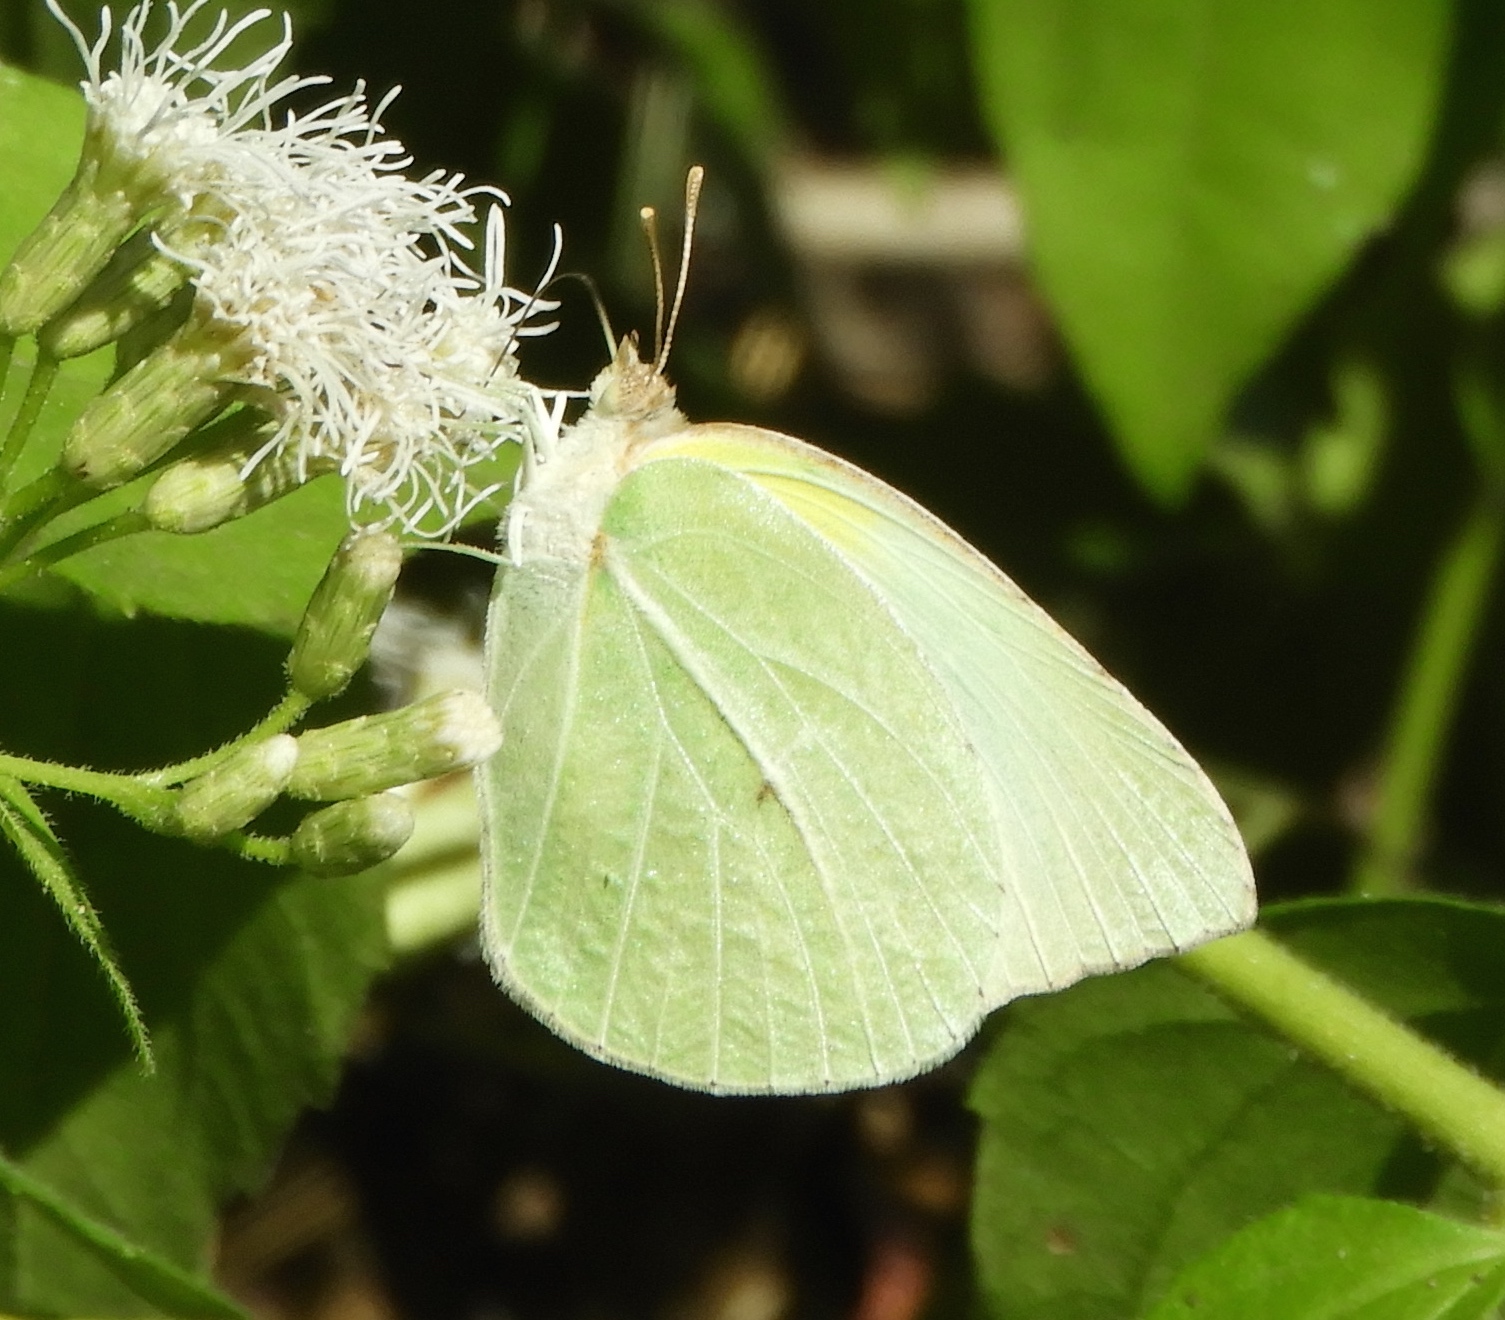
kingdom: Animalia
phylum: Arthropoda
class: Insecta
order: Lepidoptera
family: Pieridae
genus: Kricogonia
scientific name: Kricogonia lyside
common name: Guayacan sulphur,
